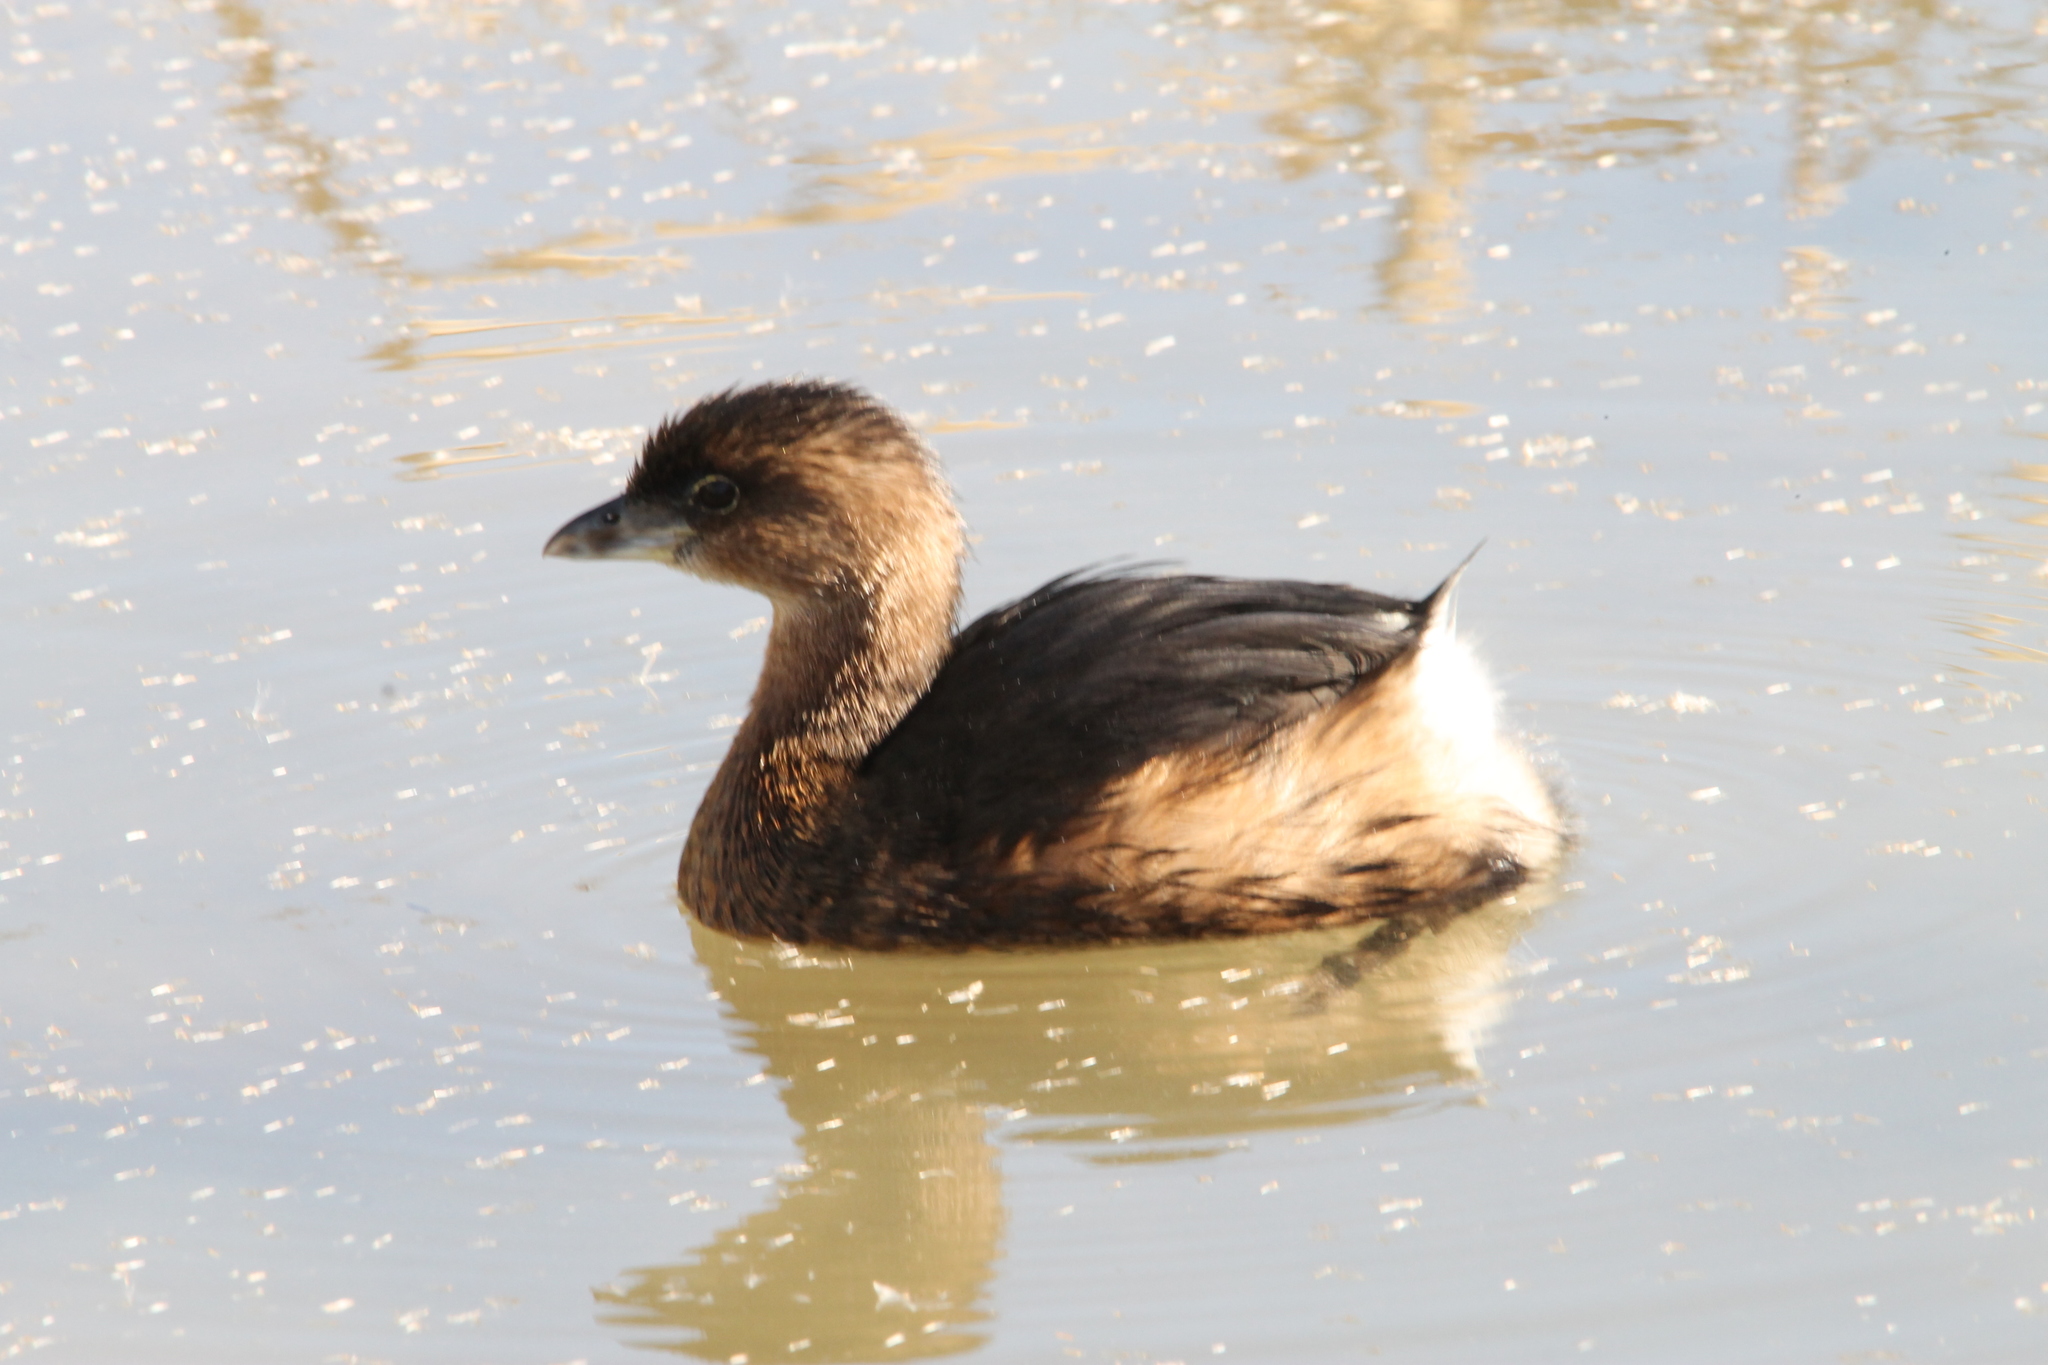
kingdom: Animalia
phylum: Chordata
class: Aves
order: Podicipediformes
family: Podicipedidae
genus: Podilymbus
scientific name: Podilymbus podiceps
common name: Pied-billed grebe
